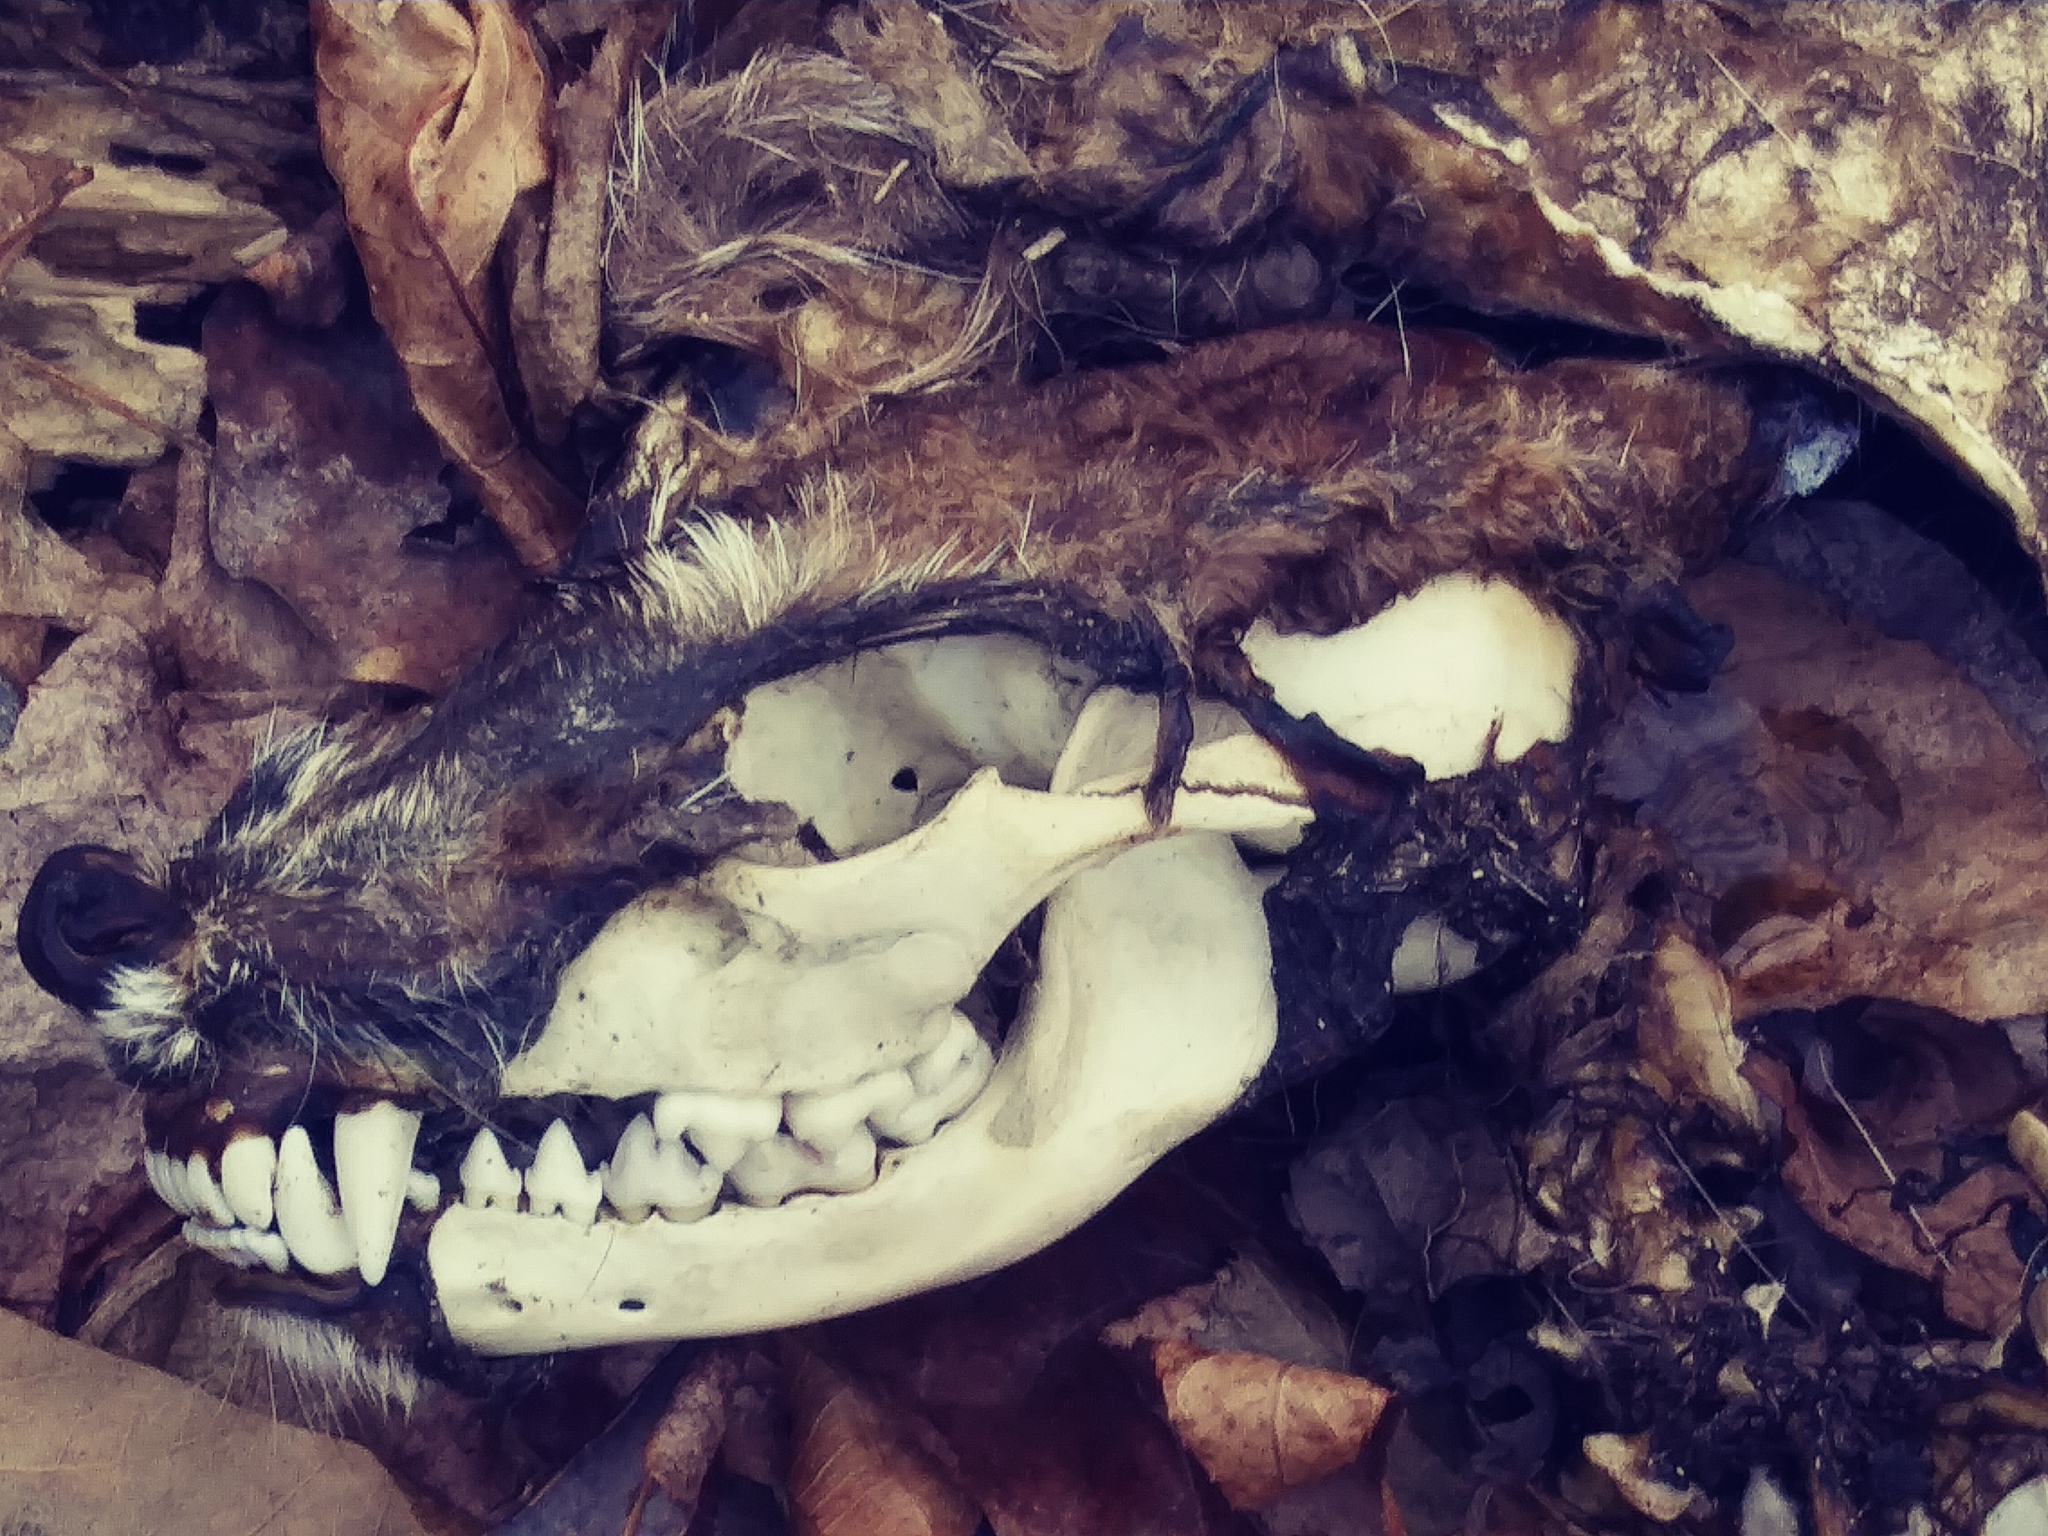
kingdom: Animalia
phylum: Chordata
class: Mammalia
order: Carnivora
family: Procyonidae
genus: Procyon
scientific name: Procyon lotor
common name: Raccoon
